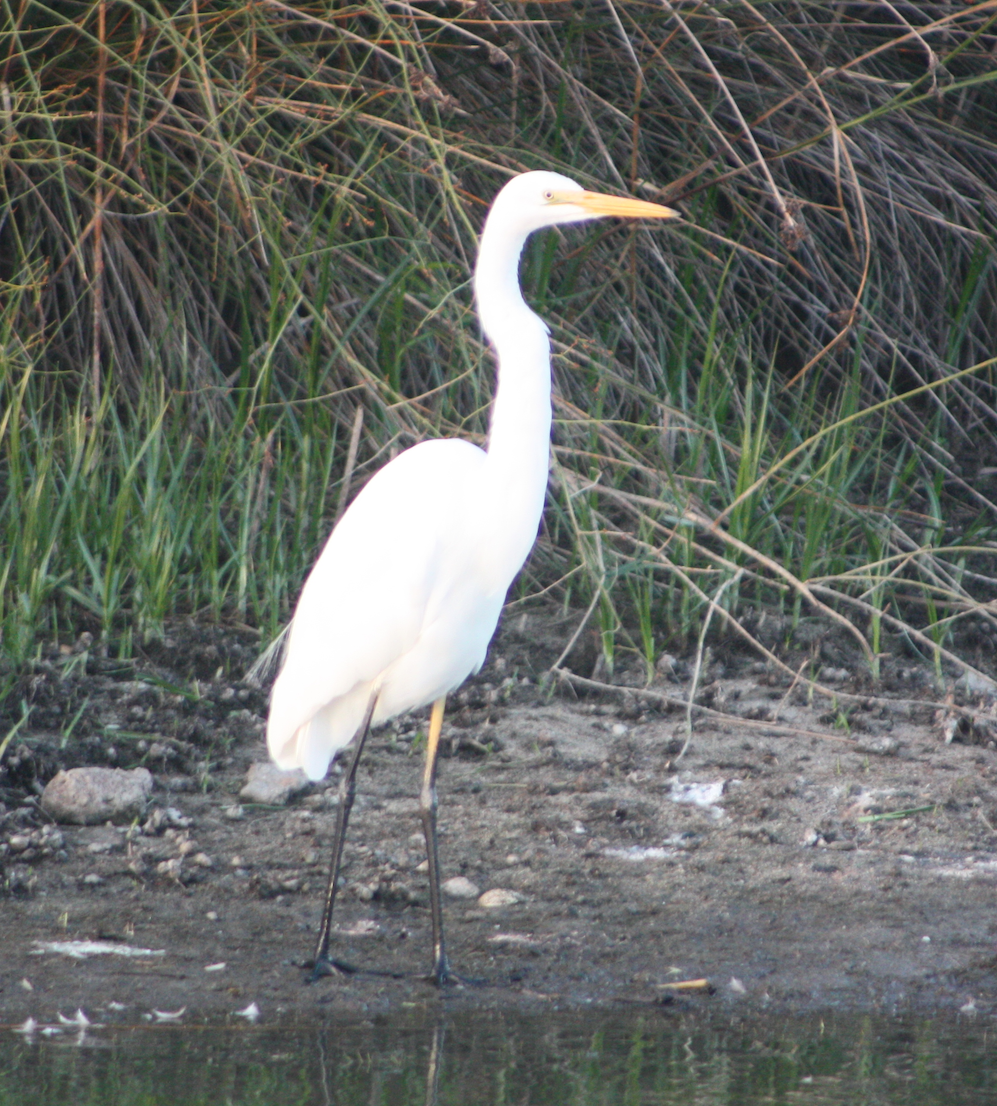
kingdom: Animalia
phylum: Chordata
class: Aves
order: Pelecaniformes
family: Ardeidae
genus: Ardea
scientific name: Ardea modesta
